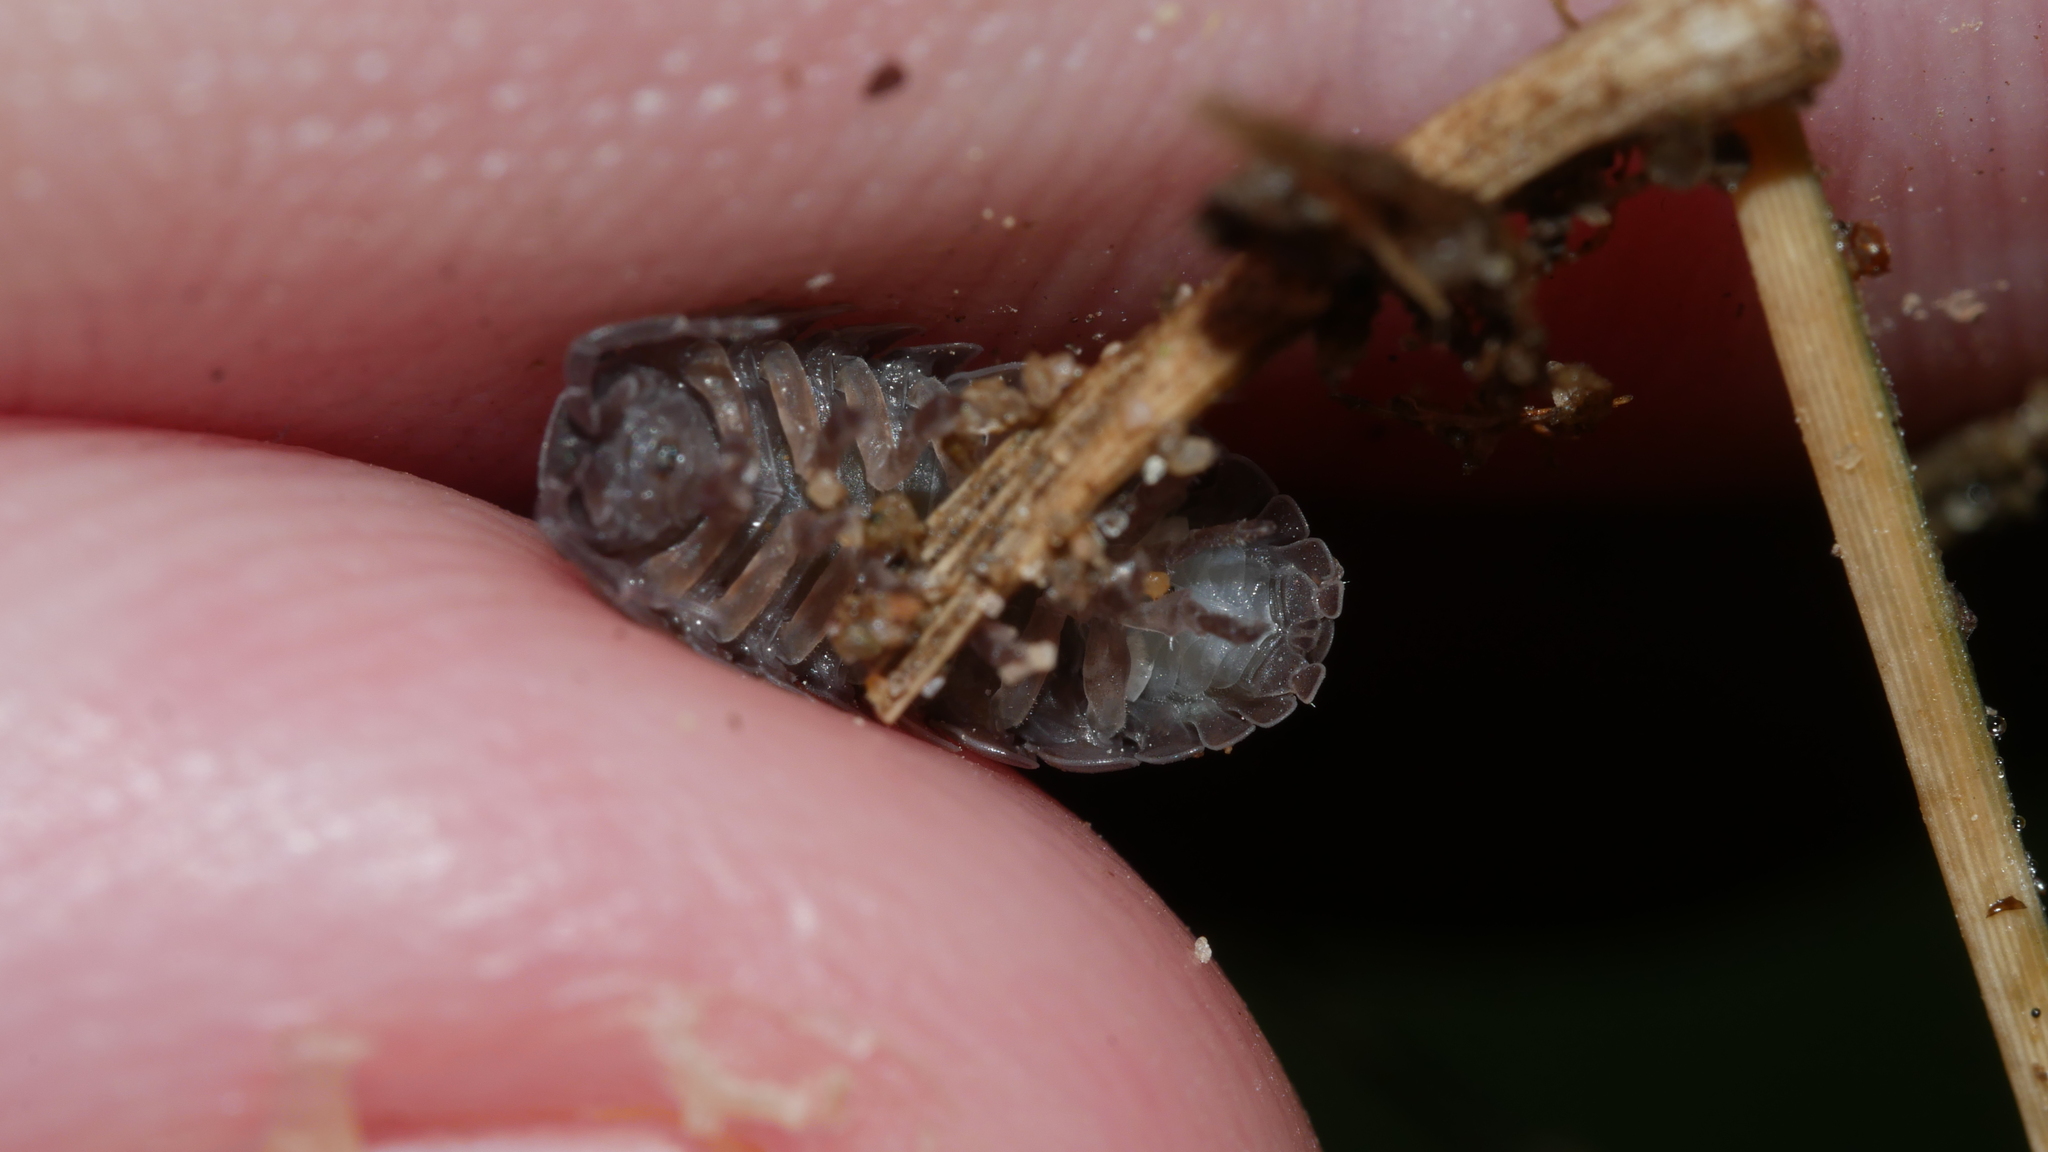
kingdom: Animalia
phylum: Arthropoda
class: Malacostraca
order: Isopoda
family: Armadillidiidae
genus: Armadillidium
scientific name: Armadillidium vulgare
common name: Common pill woodlouse
